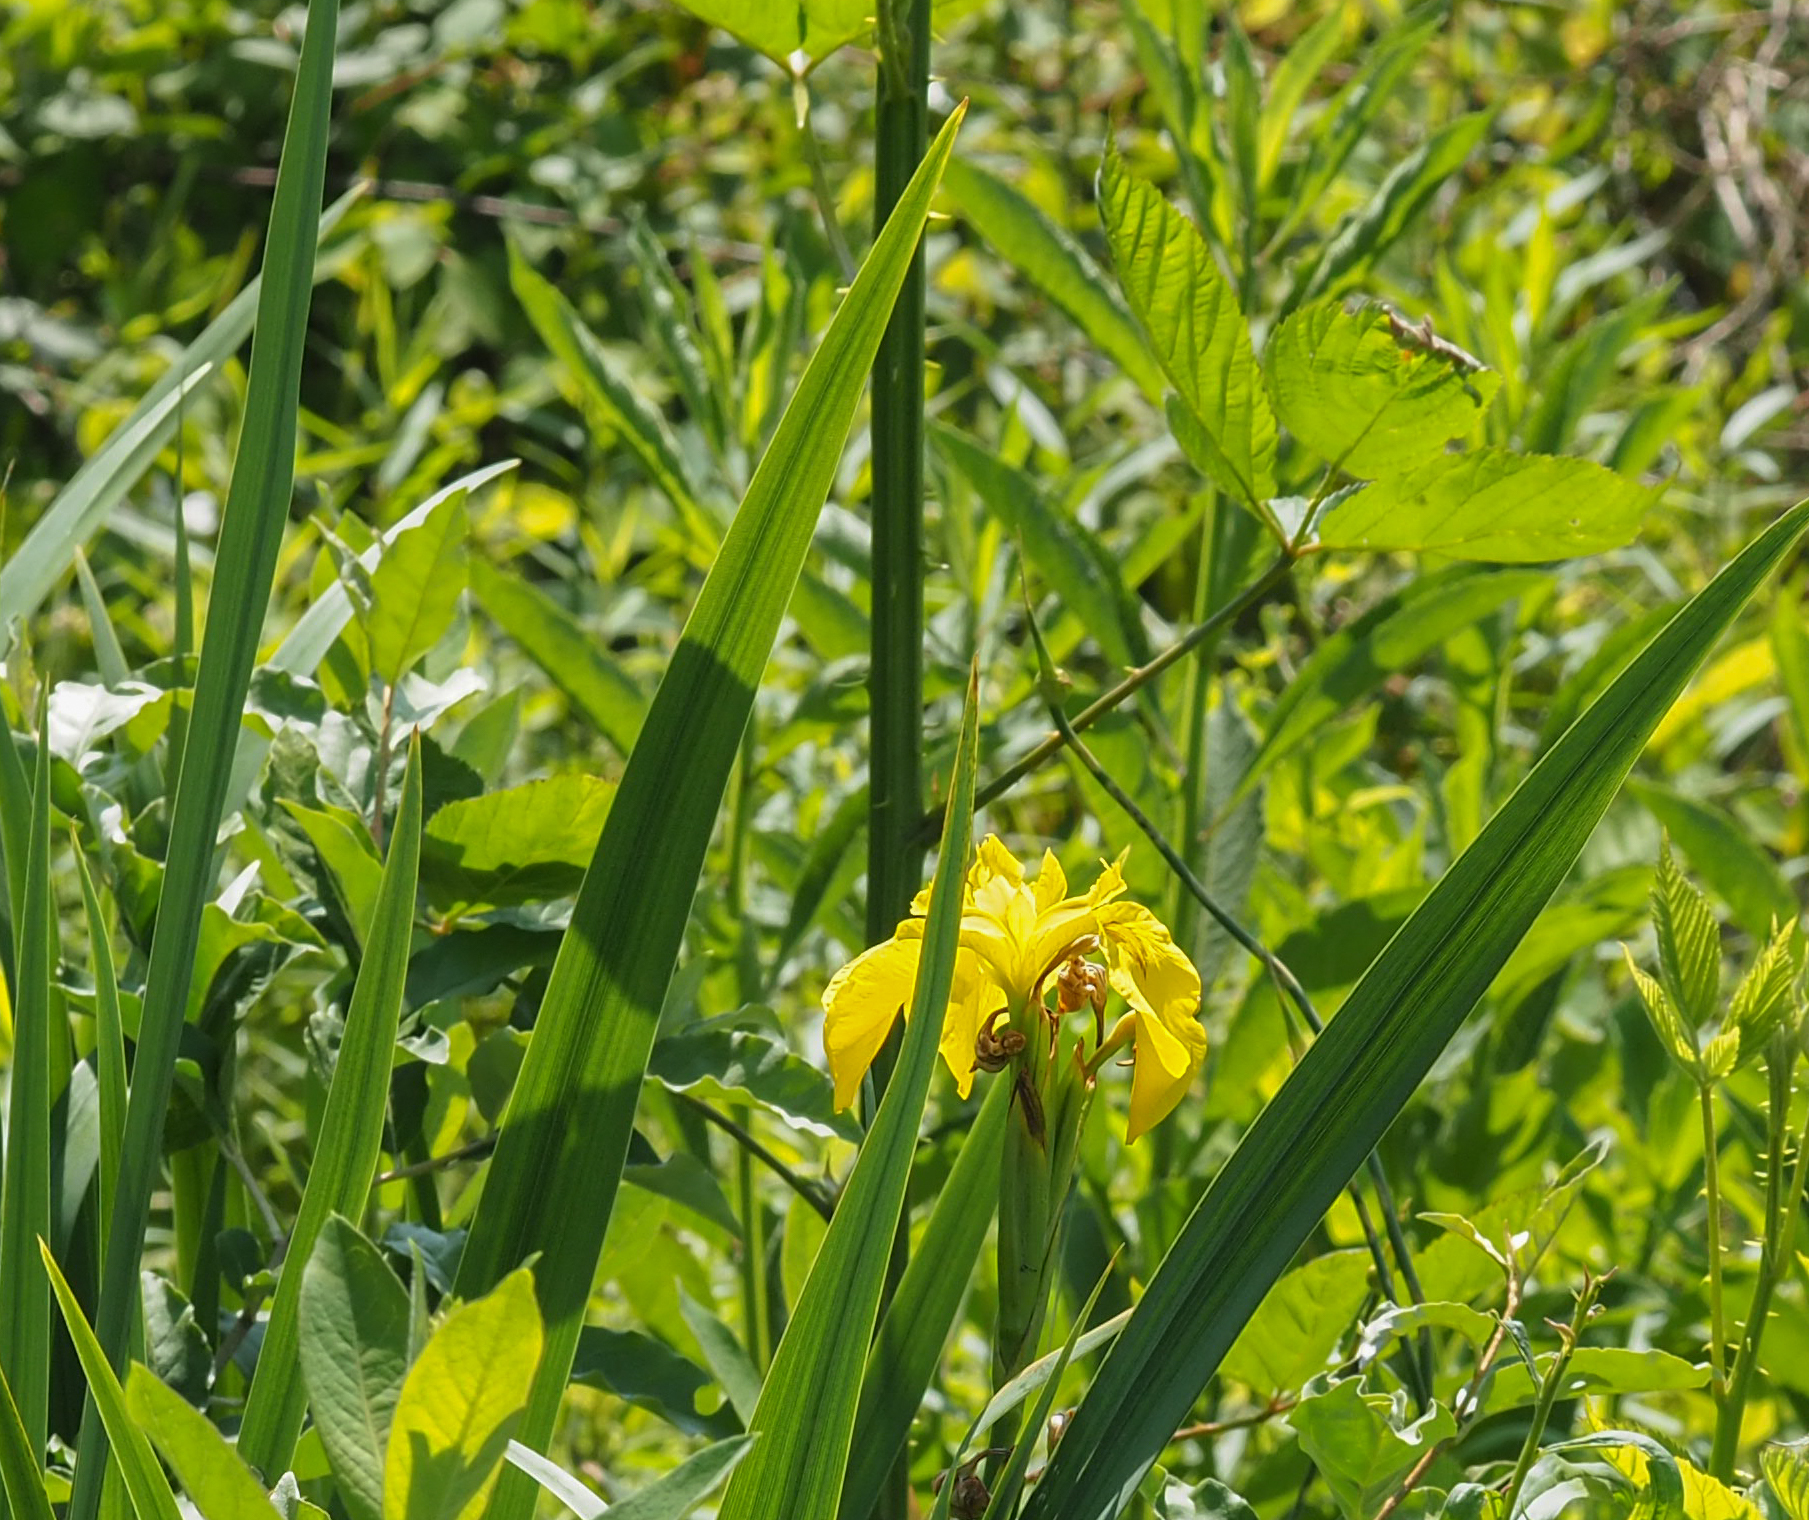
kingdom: Plantae
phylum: Tracheophyta
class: Liliopsida
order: Asparagales
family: Iridaceae
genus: Iris
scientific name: Iris pseudacorus
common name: Yellow flag
